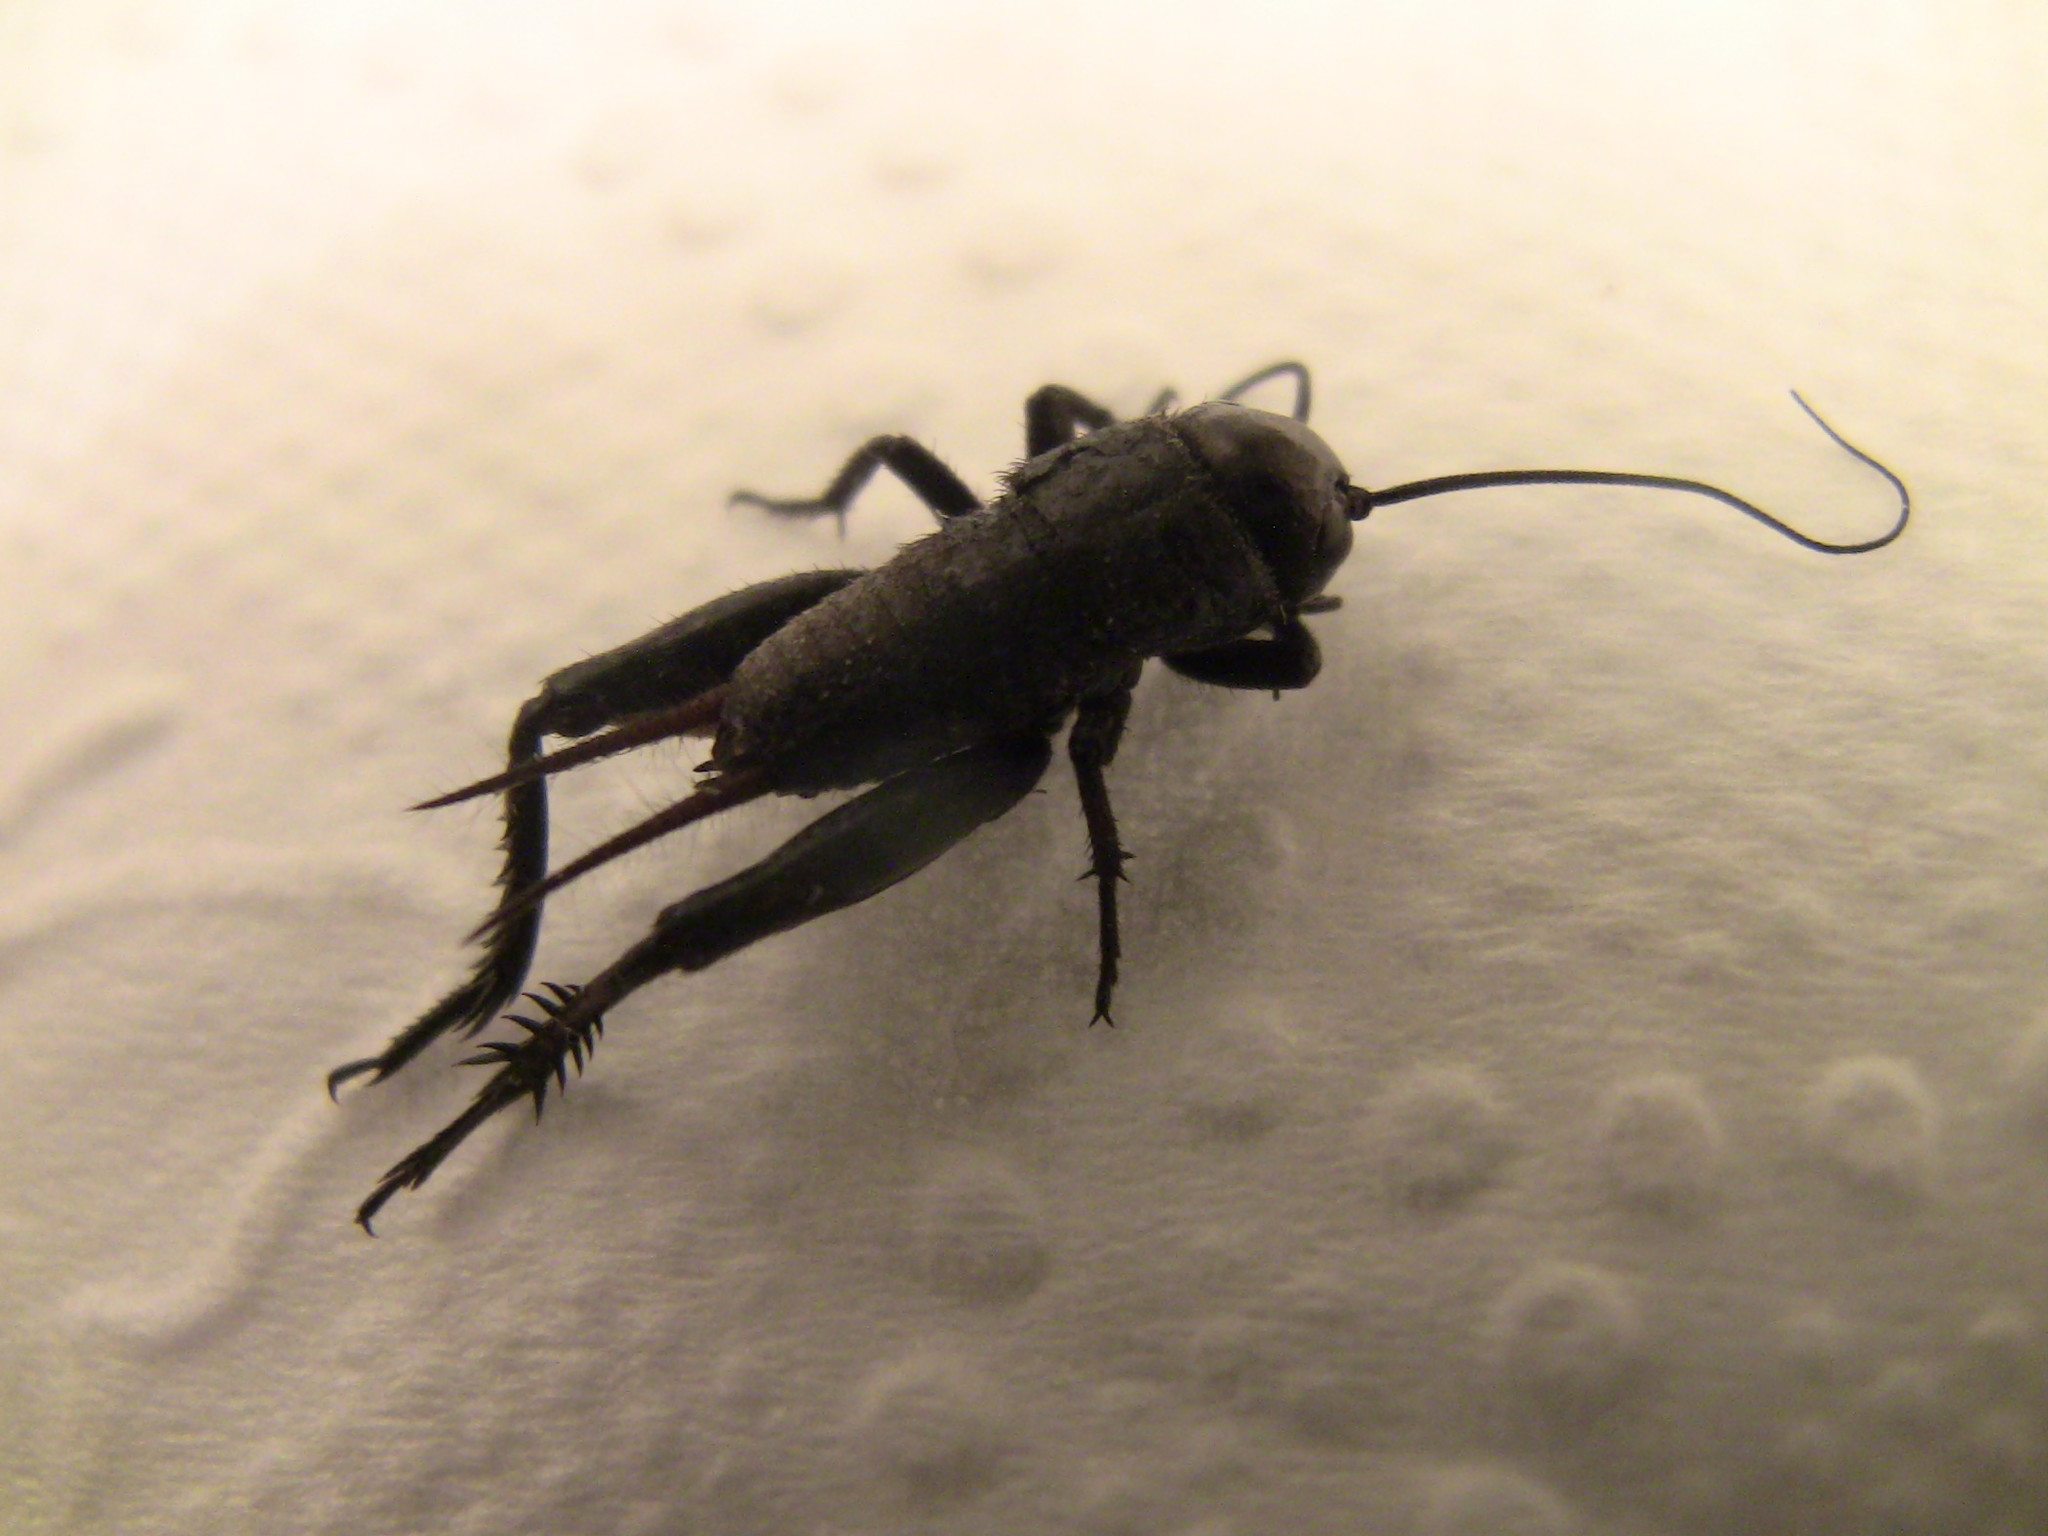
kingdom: Animalia
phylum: Arthropoda
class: Insecta
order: Orthoptera
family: Gryllidae
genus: Gryllus
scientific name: Gryllus veletis
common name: Spring field cricket
